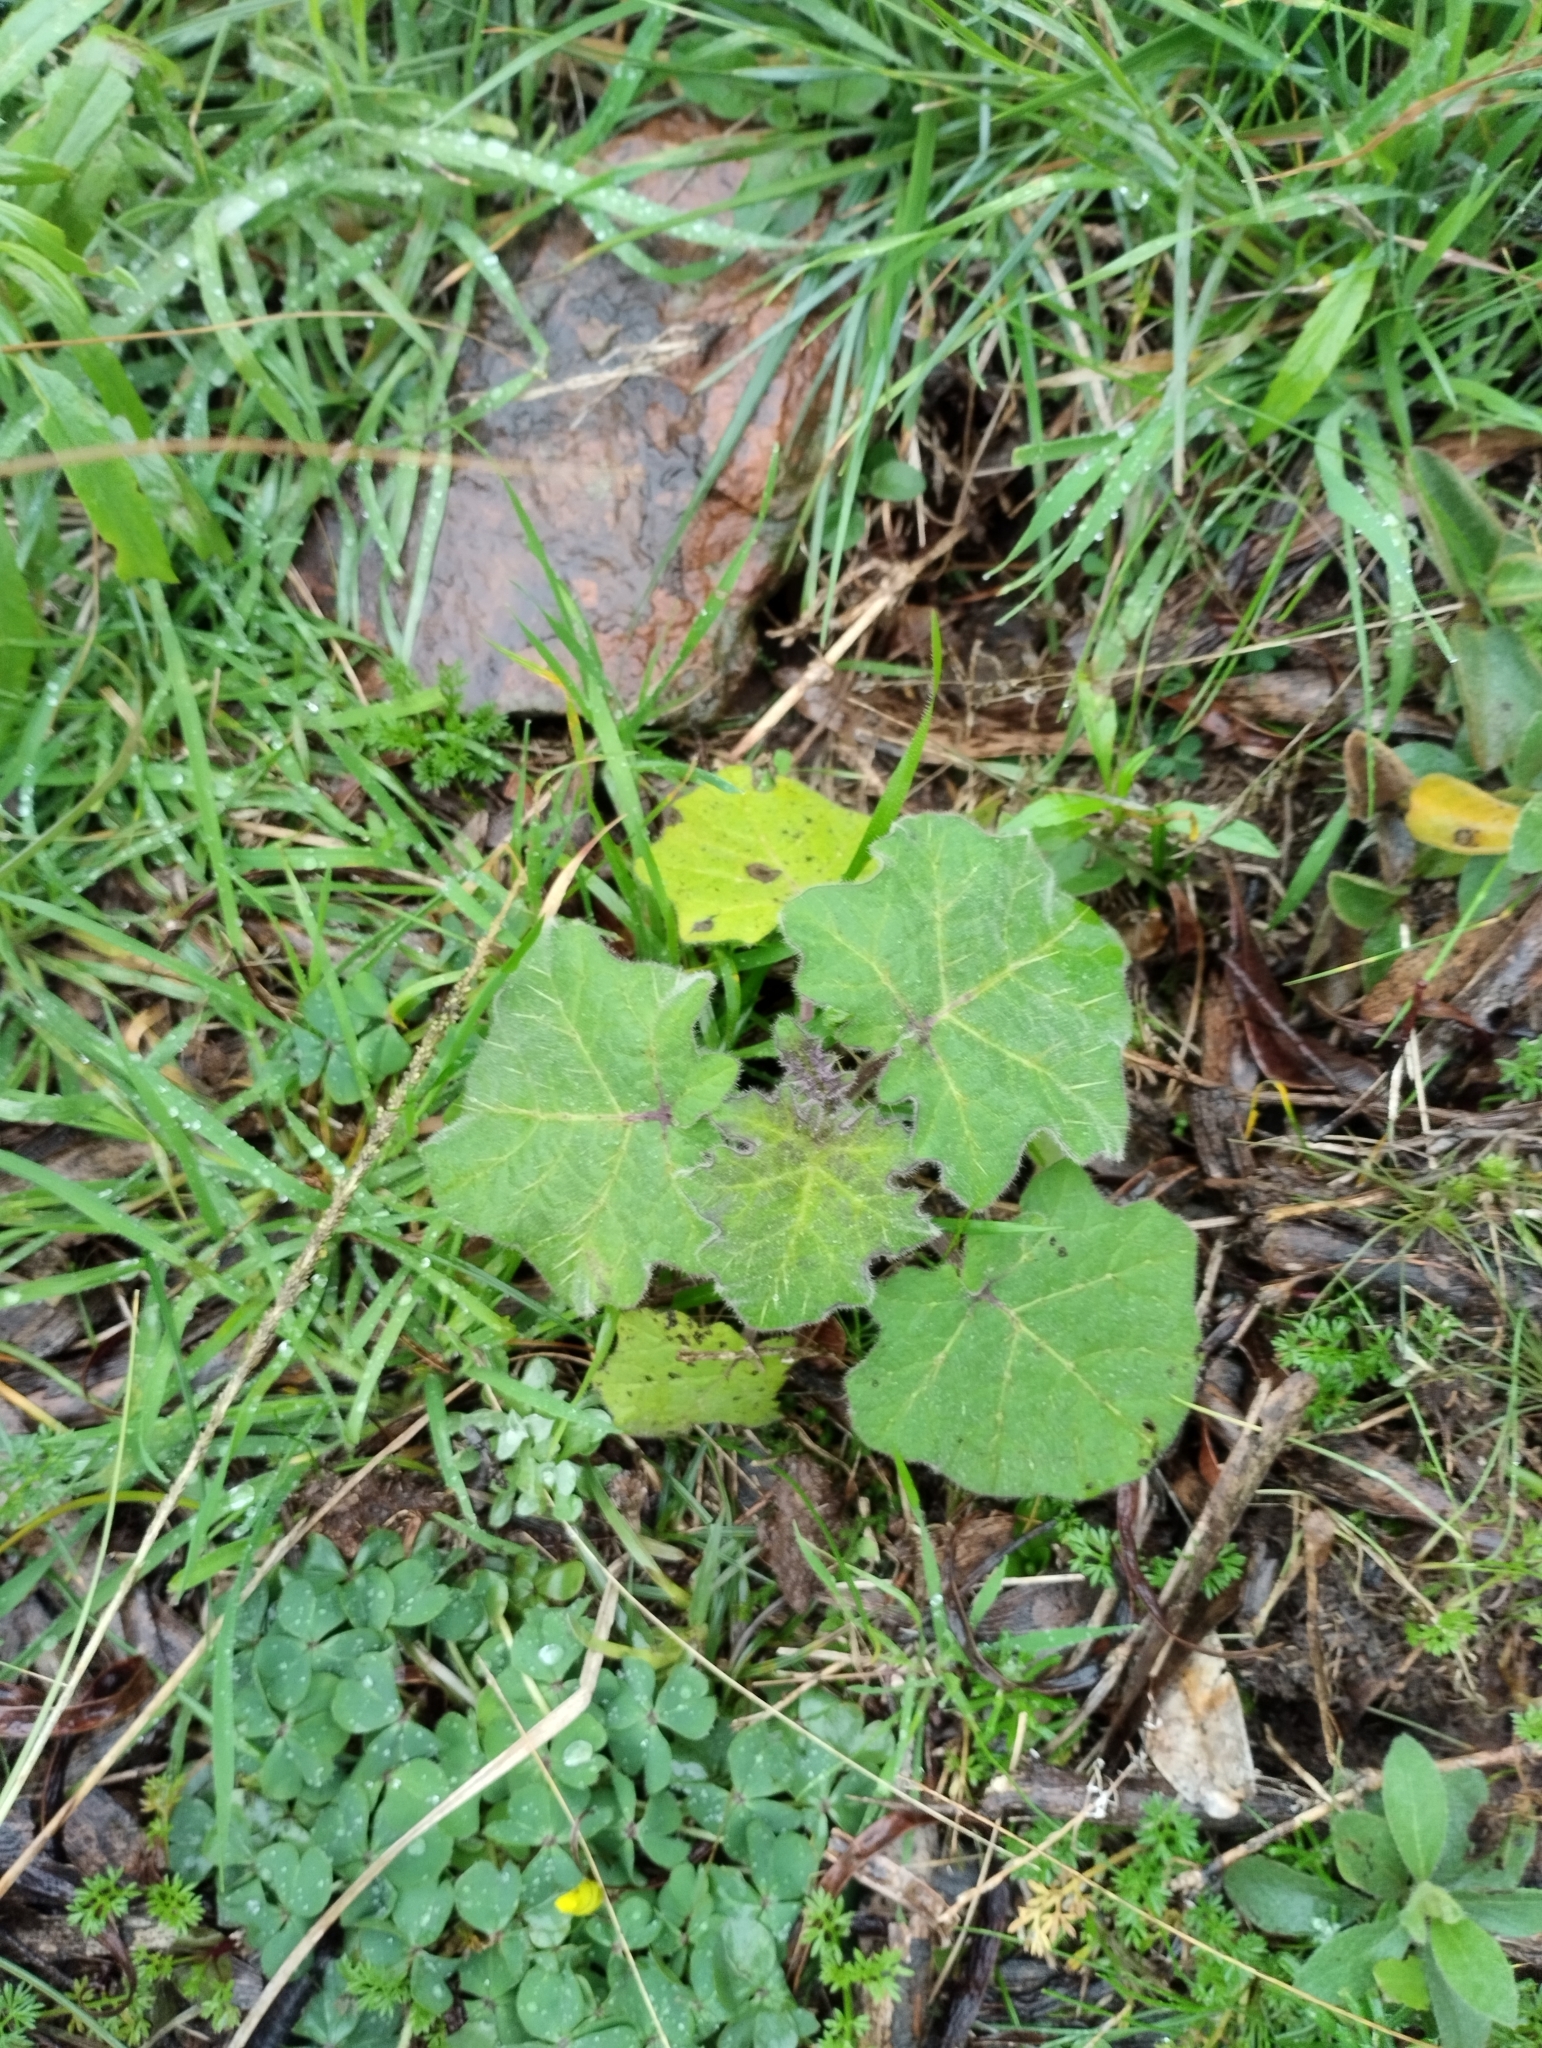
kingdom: Plantae
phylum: Tracheophyta
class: Magnoliopsida
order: Solanales
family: Solanaceae
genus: Solanum
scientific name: Solanum viarum
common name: Tropical soda apple
